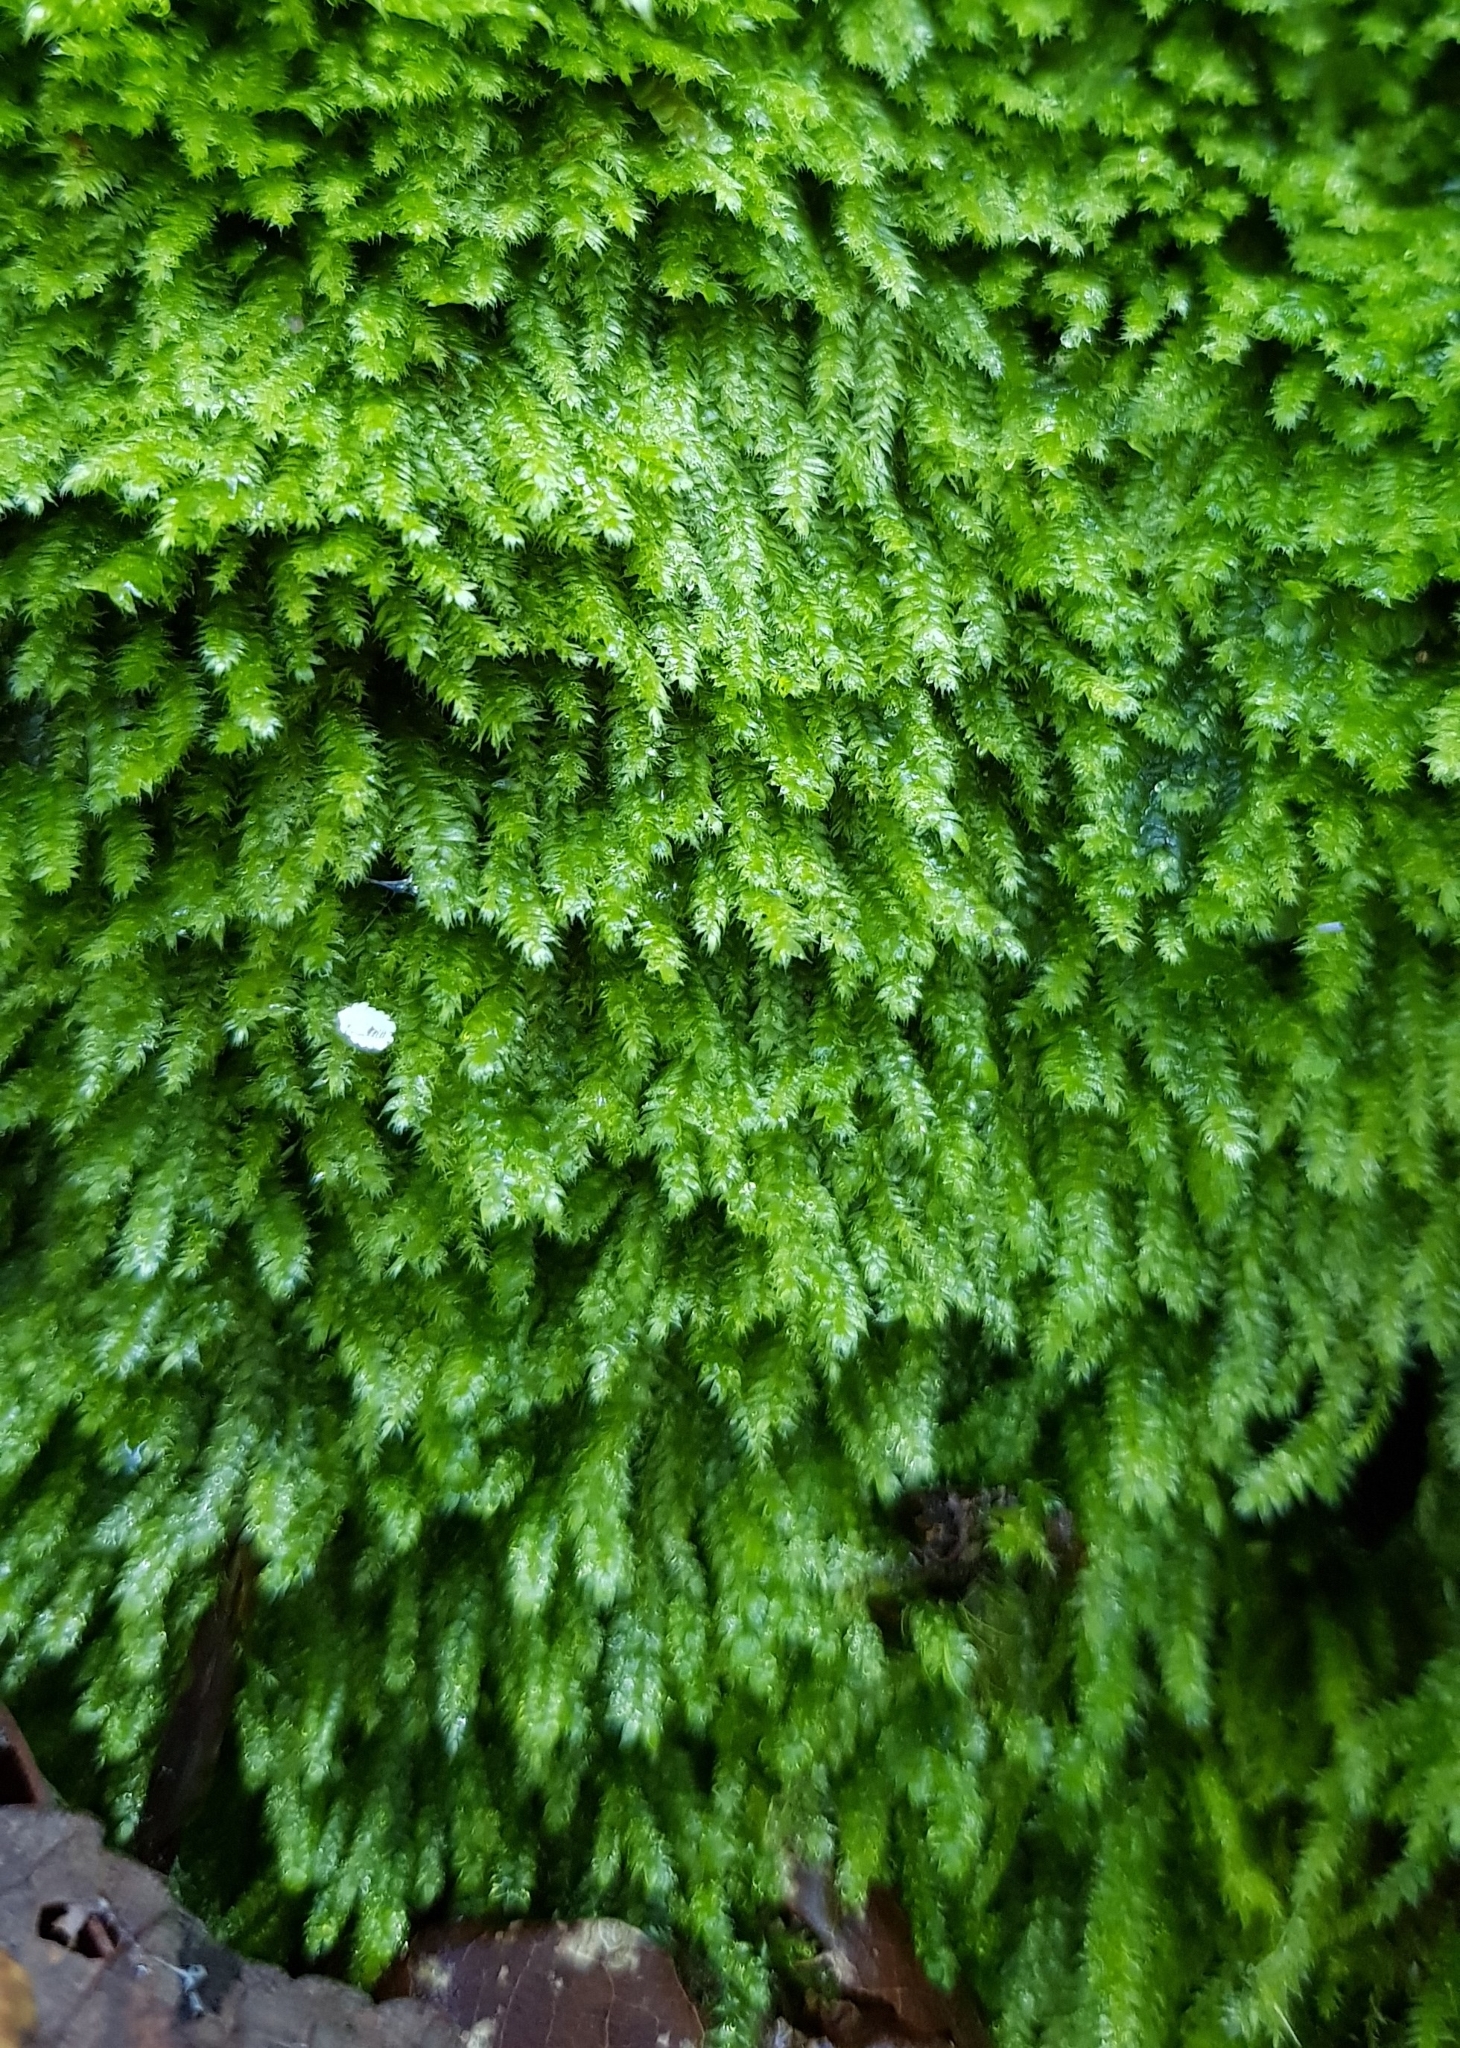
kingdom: Plantae
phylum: Bryophyta
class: Bryopsida
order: Hypnales
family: Plagiotheciaceae
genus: Pseudotaxiphyllum
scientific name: Pseudotaxiphyllum elegans
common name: Elegant silk moss
